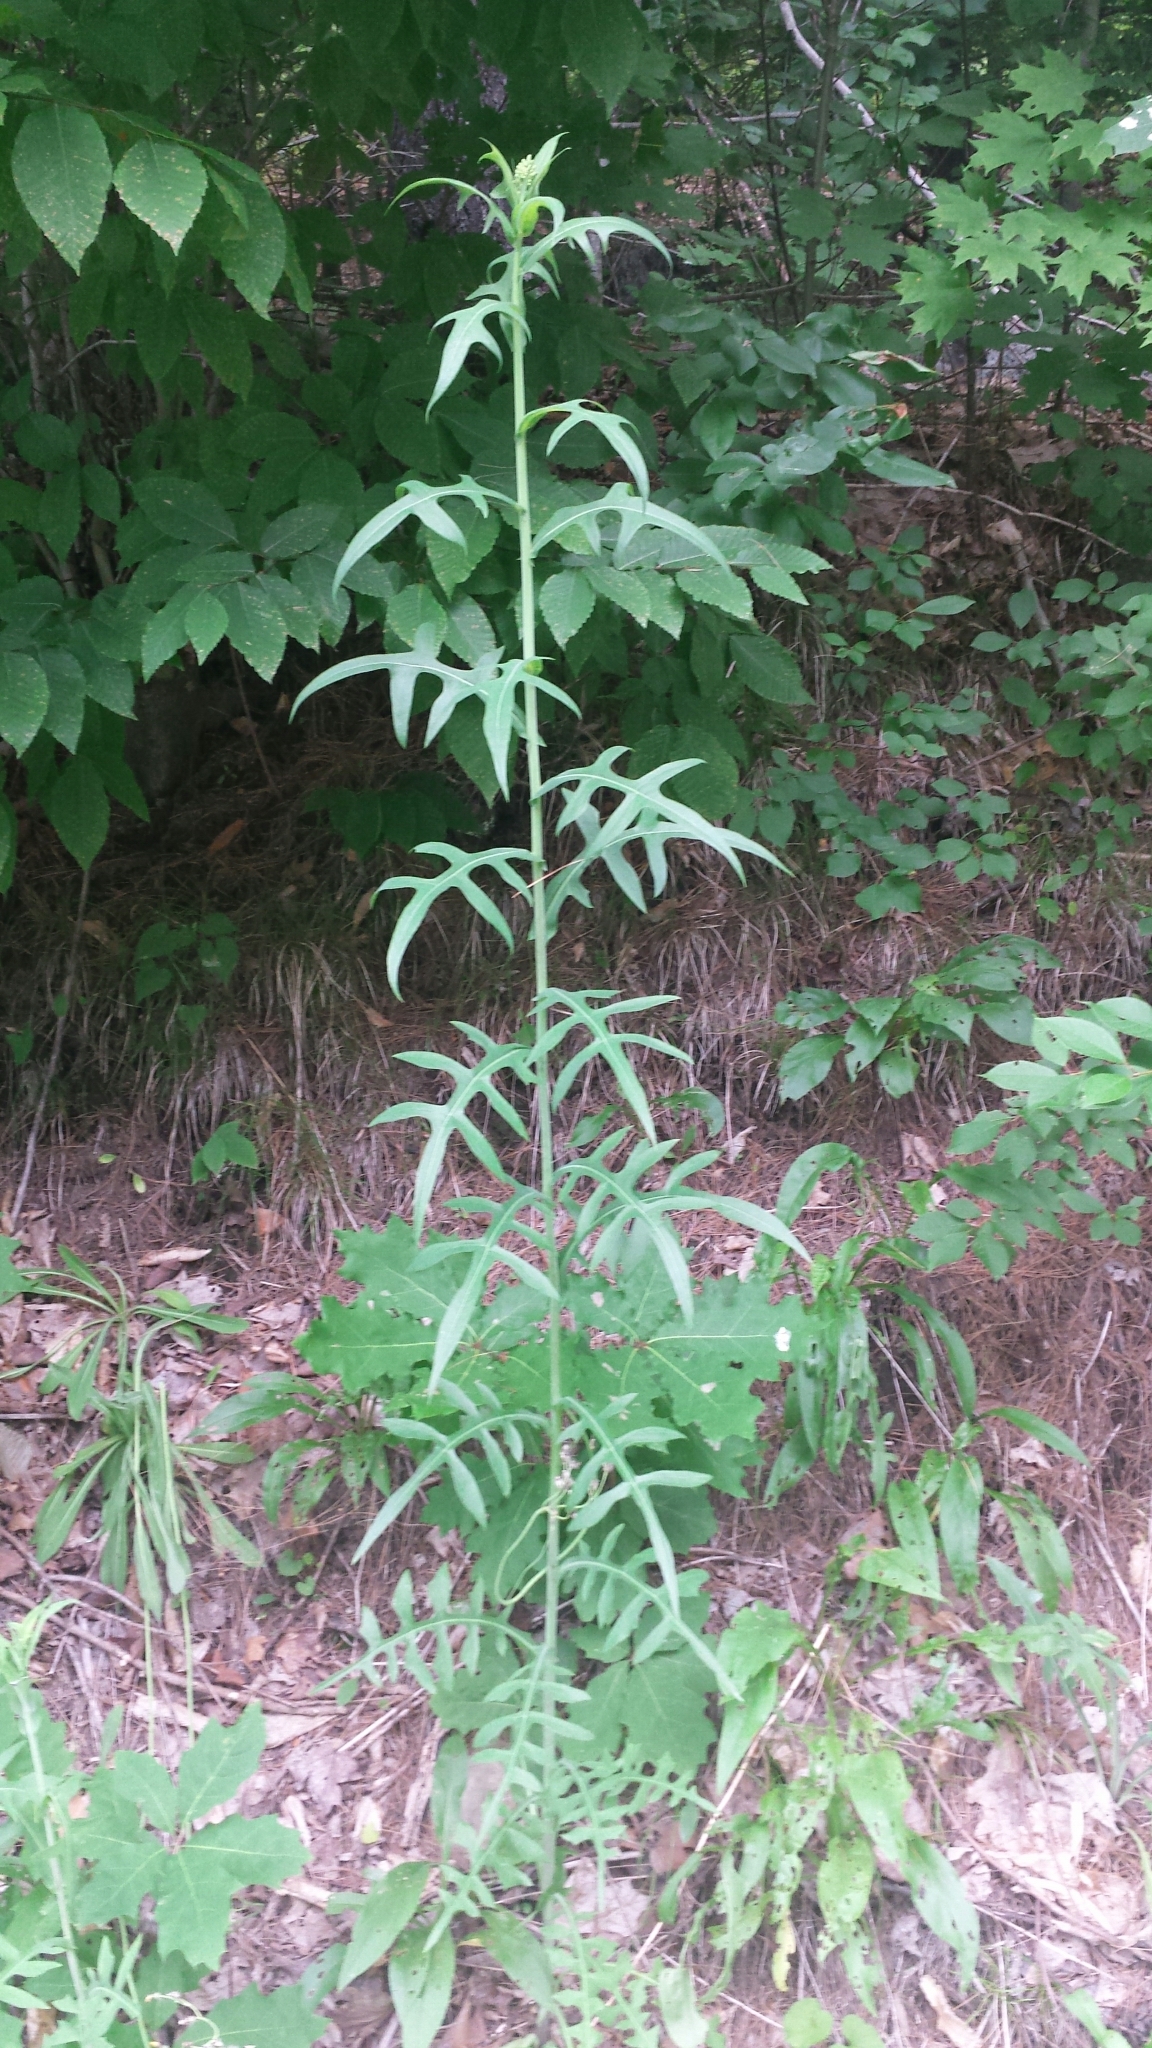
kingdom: Plantae
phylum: Tracheophyta
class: Magnoliopsida
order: Asterales
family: Asteraceae
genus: Lactuca
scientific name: Lactuca canadensis
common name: Canada lettuce
